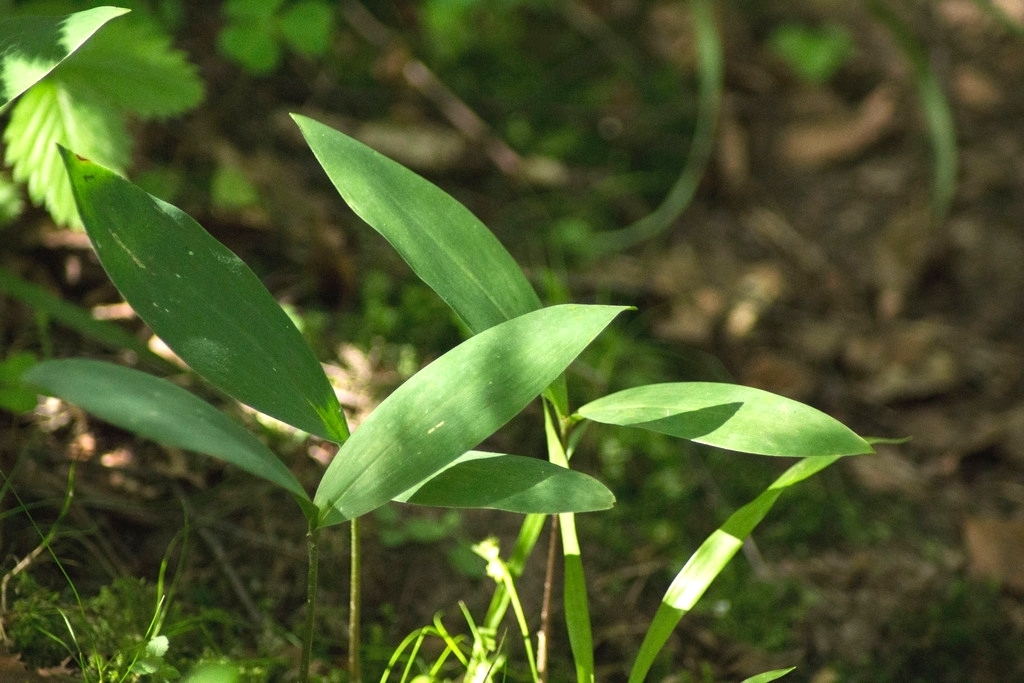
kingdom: Plantae
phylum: Tracheophyta
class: Liliopsida
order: Asparagales
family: Asparagaceae
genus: Convallaria
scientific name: Convallaria majalis
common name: Lily-of-the-valley
